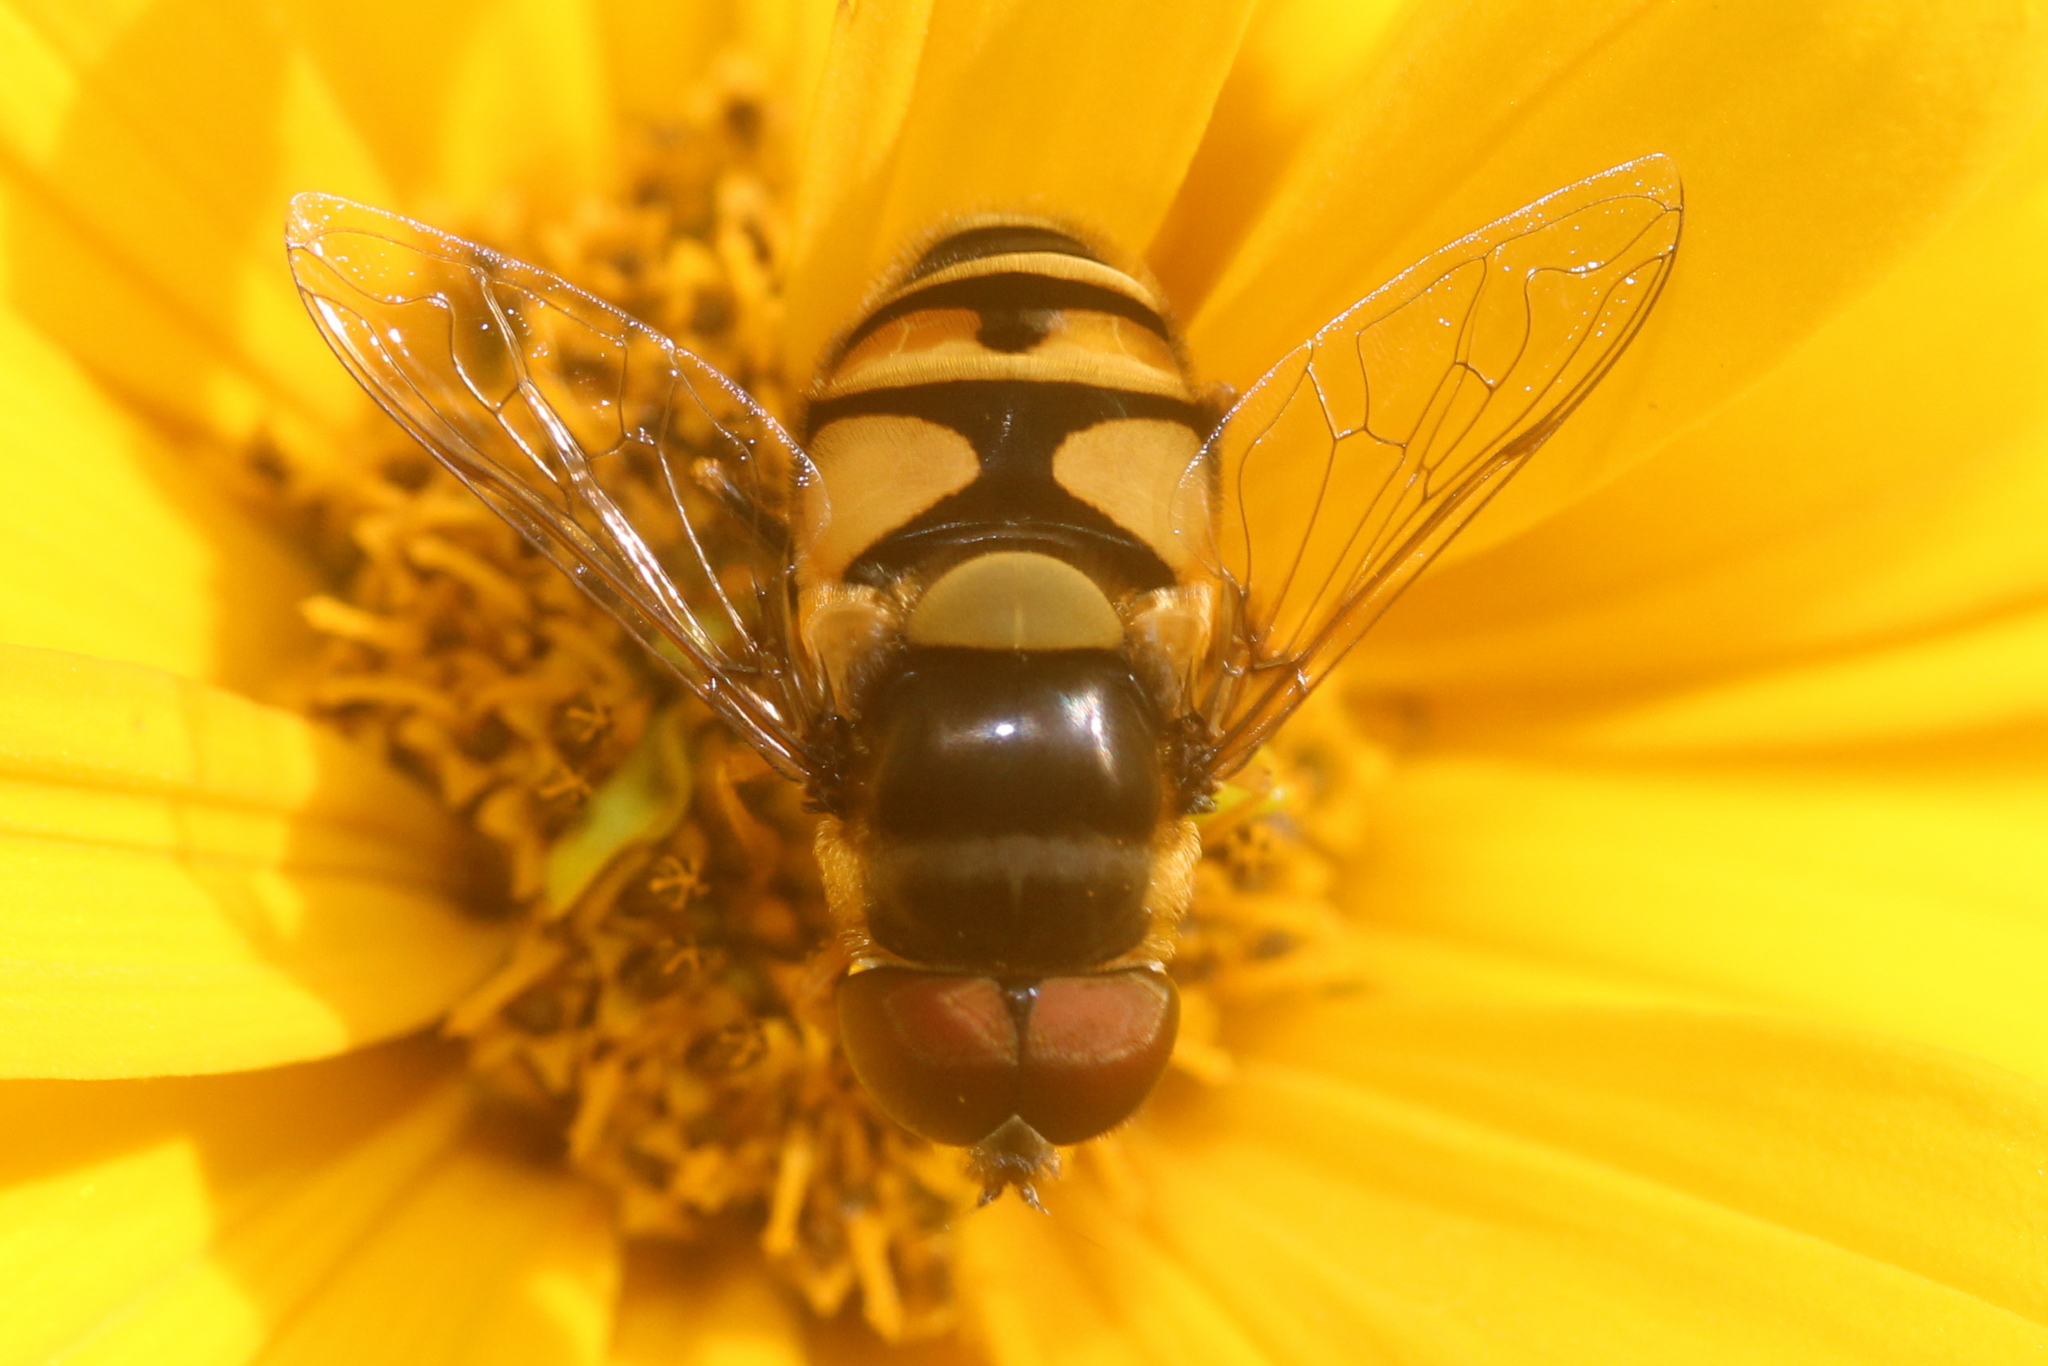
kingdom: Animalia
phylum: Arthropoda
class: Insecta
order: Diptera
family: Syrphidae
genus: Eristalis
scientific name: Eristalis transversa
